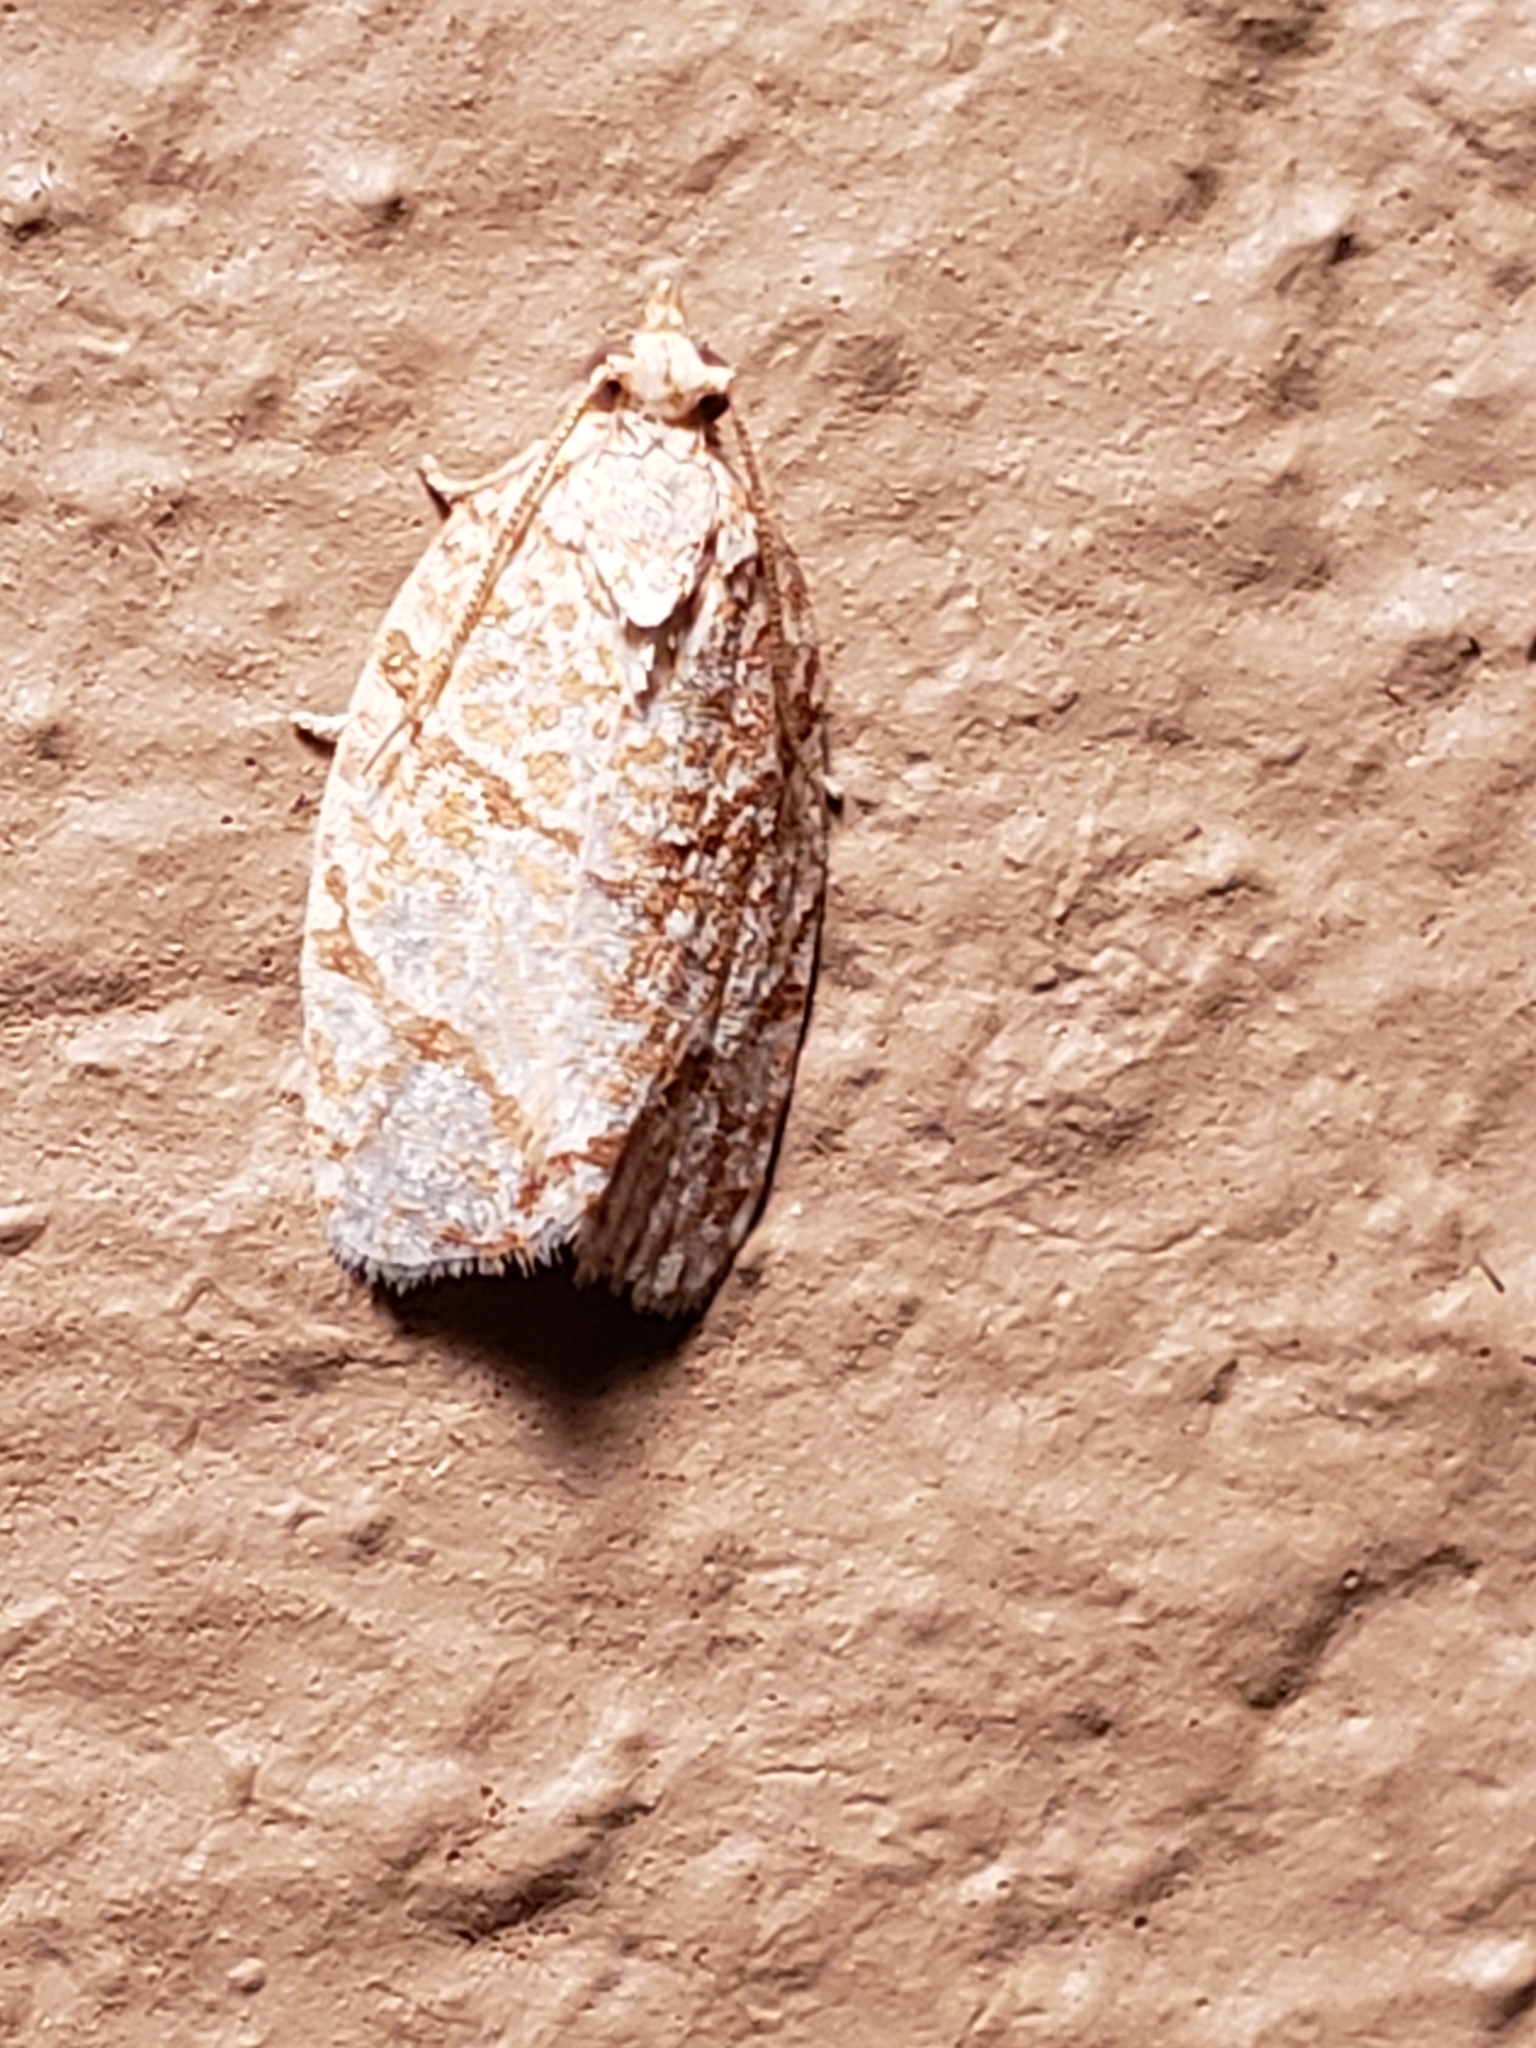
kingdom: Animalia
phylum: Arthropoda
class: Insecta
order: Lepidoptera
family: Tortricidae
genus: Argyrotaenia
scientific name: Argyrotaenia quercifoliana
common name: Yellow-winged oak leafroller moth
